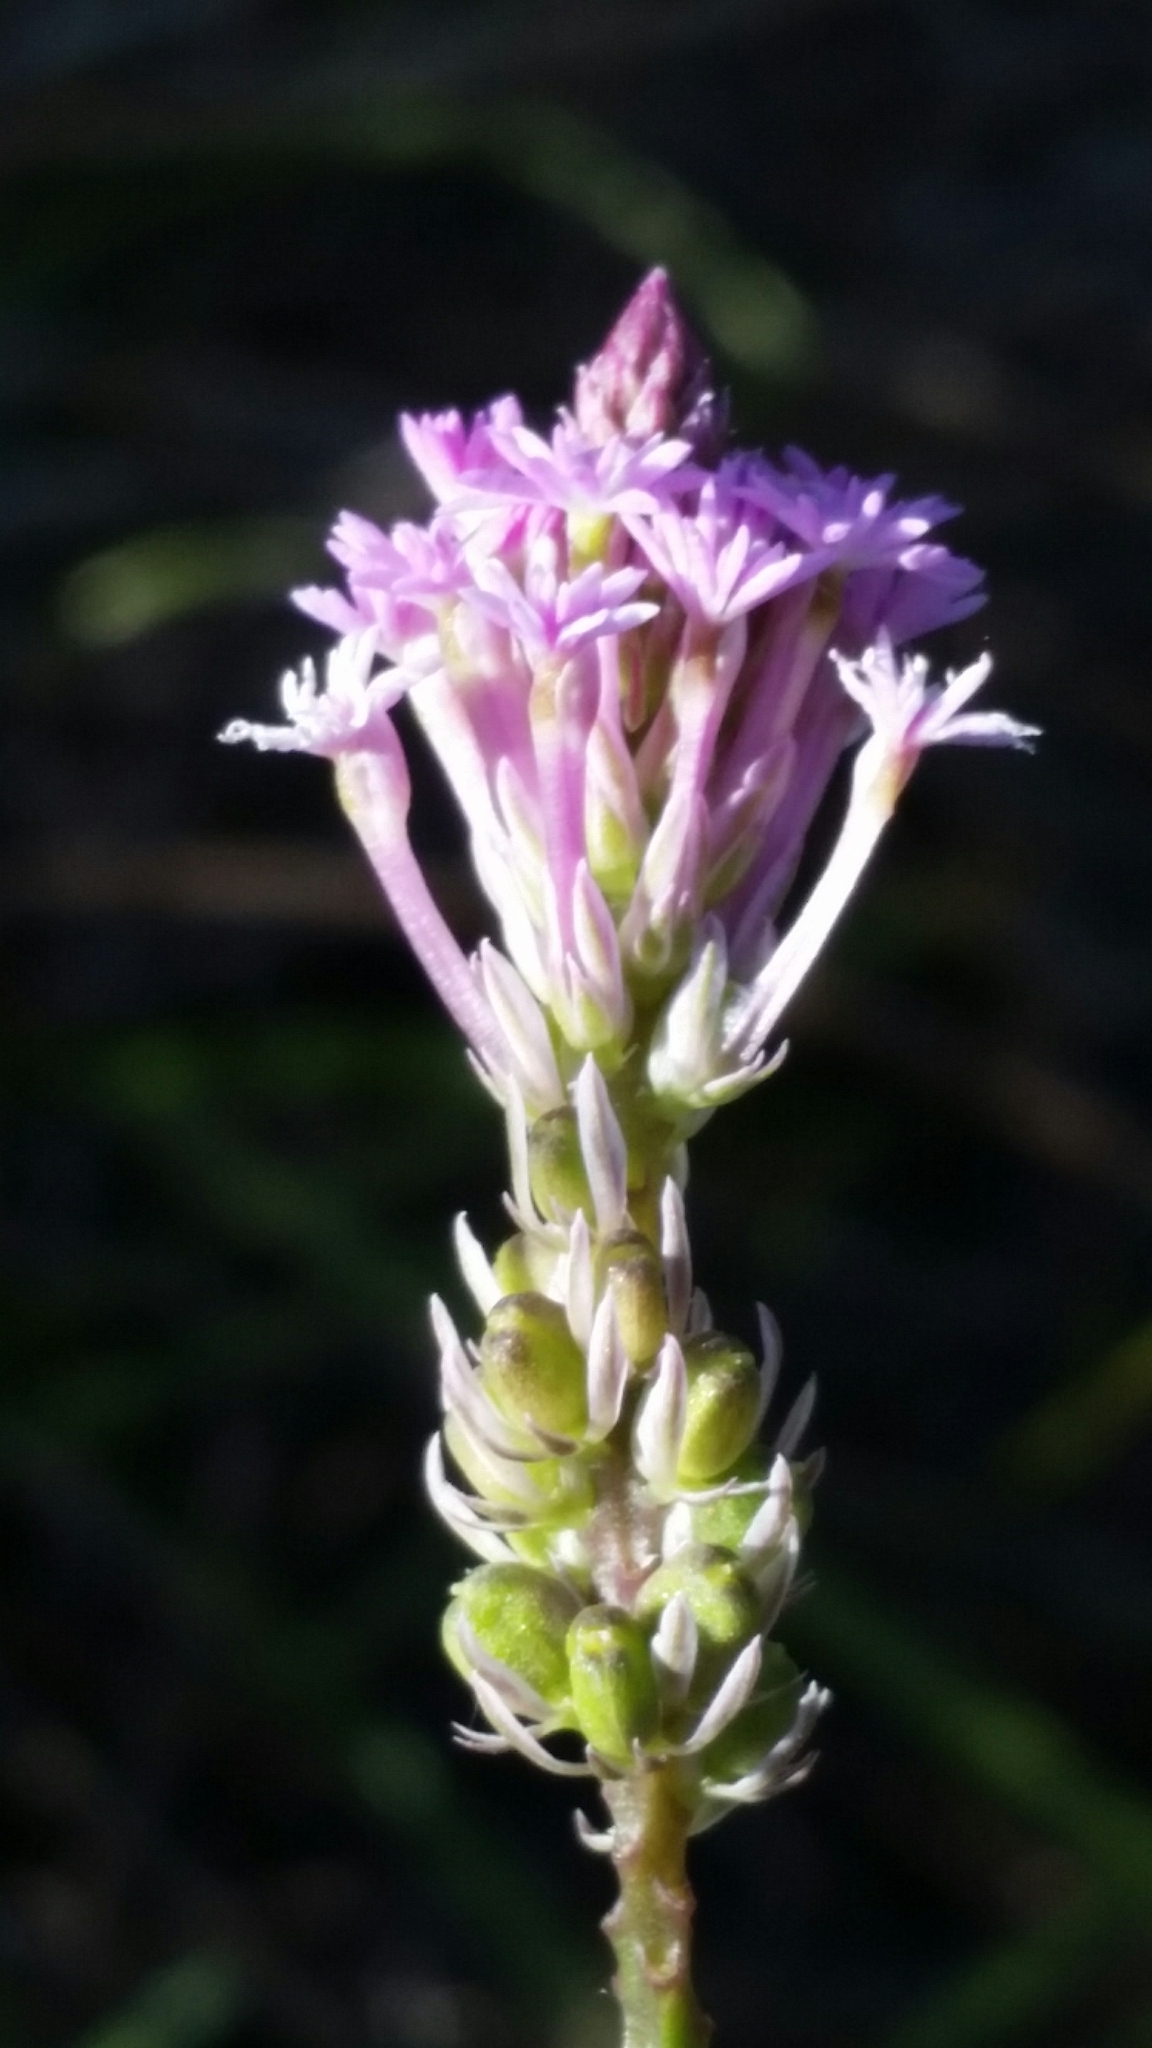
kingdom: Plantae
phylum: Tracheophyta
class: Magnoliopsida
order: Fabales
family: Polygalaceae
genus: Polygala
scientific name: Polygala incarnata
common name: Pink milkwort
